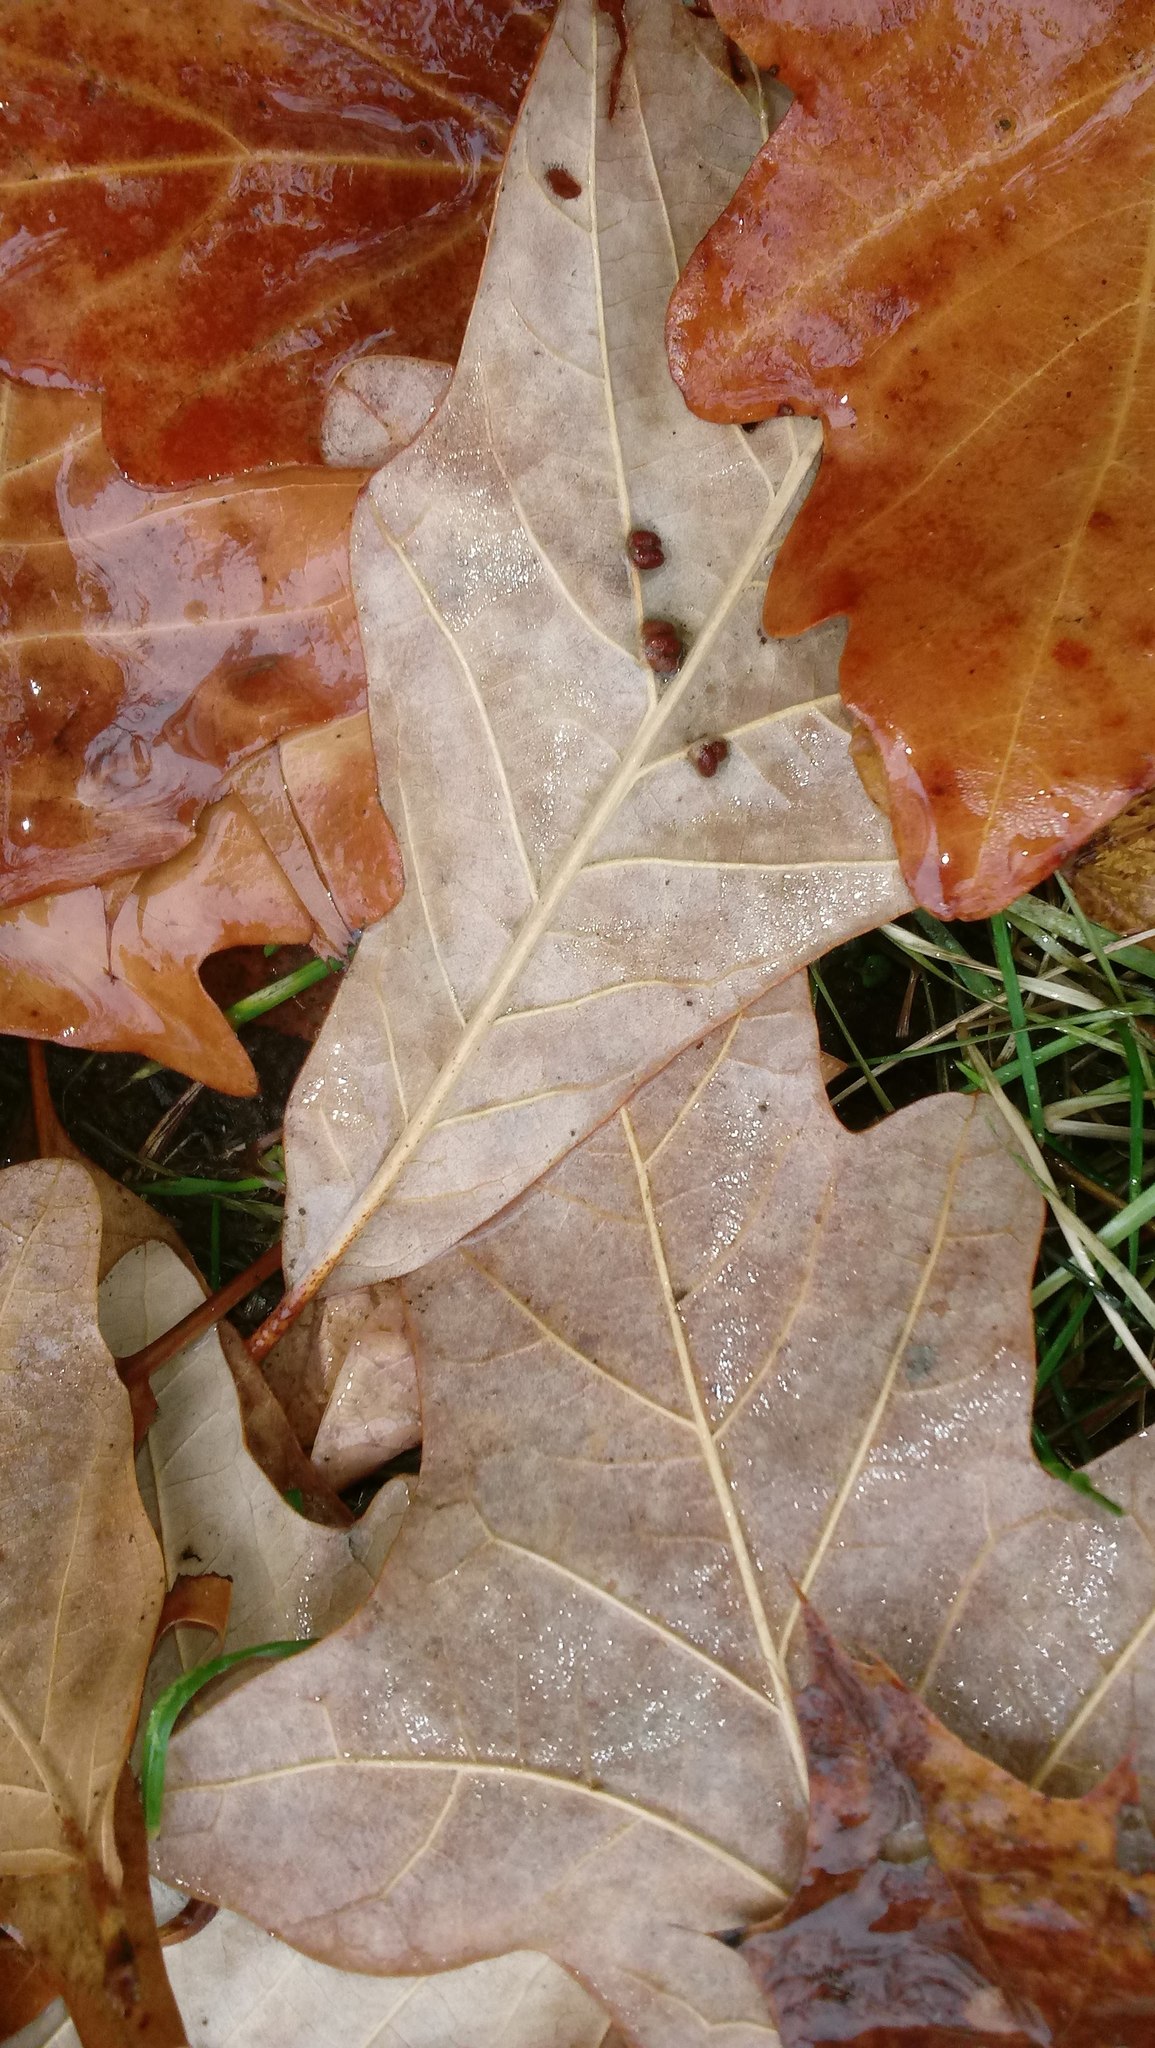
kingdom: Animalia
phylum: Arthropoda
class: Insecta
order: Hymenoptera
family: Cynipidae
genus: Andricus
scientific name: Andricus Druon ignotum
